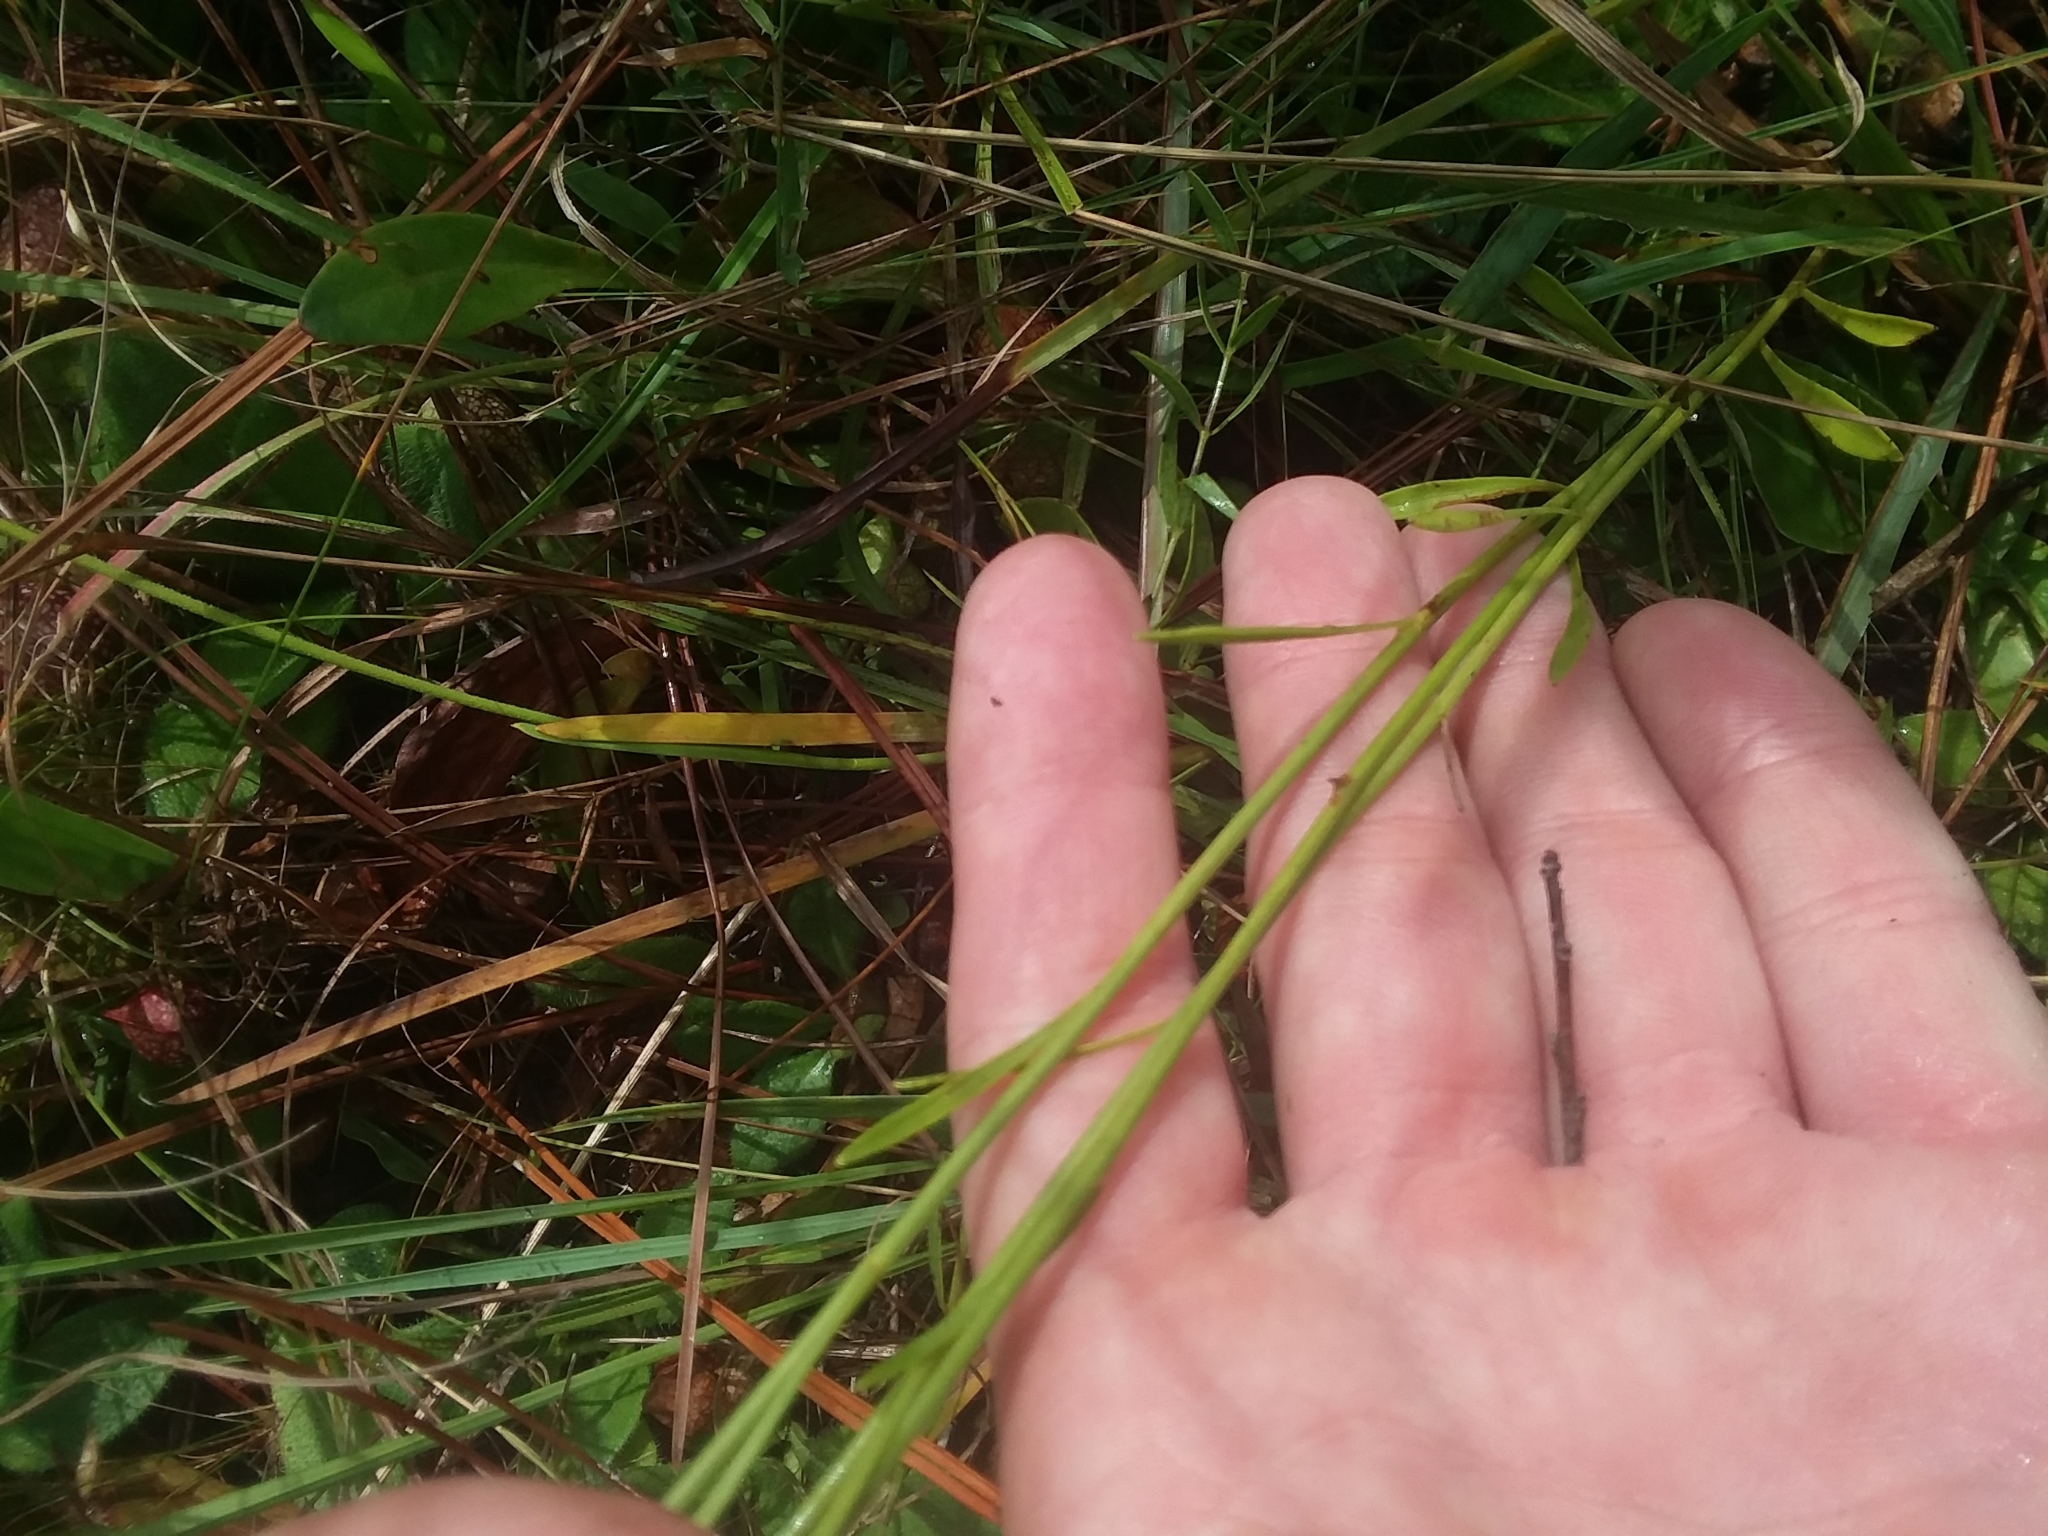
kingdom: Plantae
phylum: Tracheophyta
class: Magnoliopsida
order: Asterales
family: Asteraceae
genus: Bigelowia
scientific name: Bigelowia nudata
